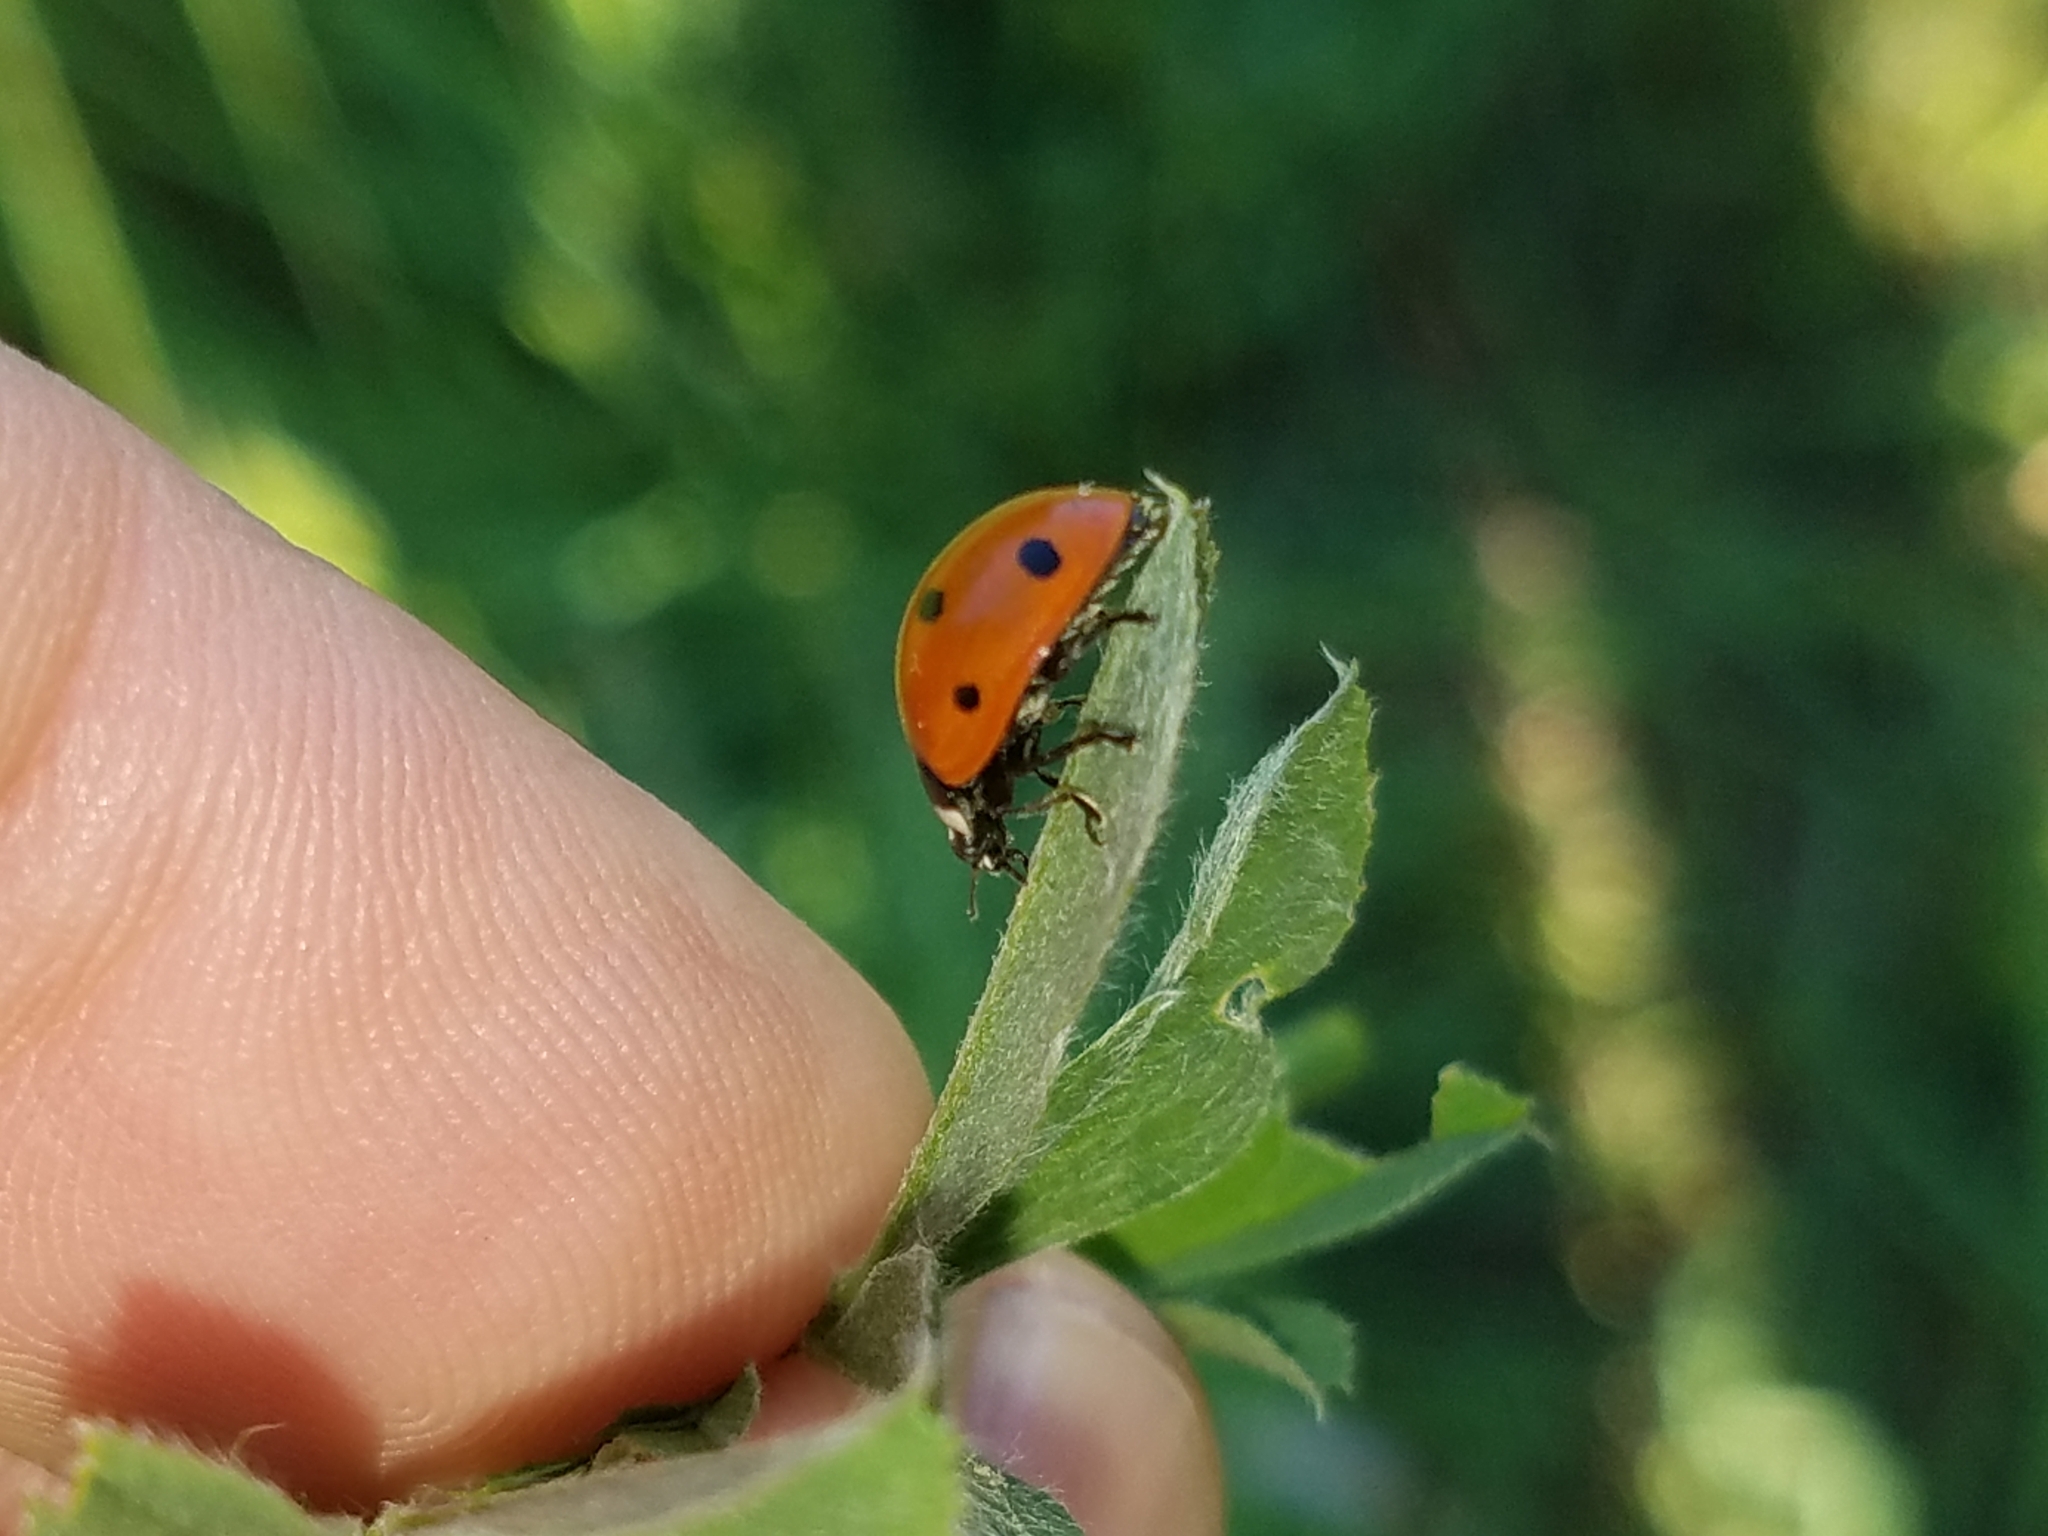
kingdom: Animalia
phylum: Arthropoda
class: Insecta
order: Coleoptera
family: Coccinellidae
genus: Coccinella
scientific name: Coccinella septempunctata
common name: Sevenspotted lady beetle
